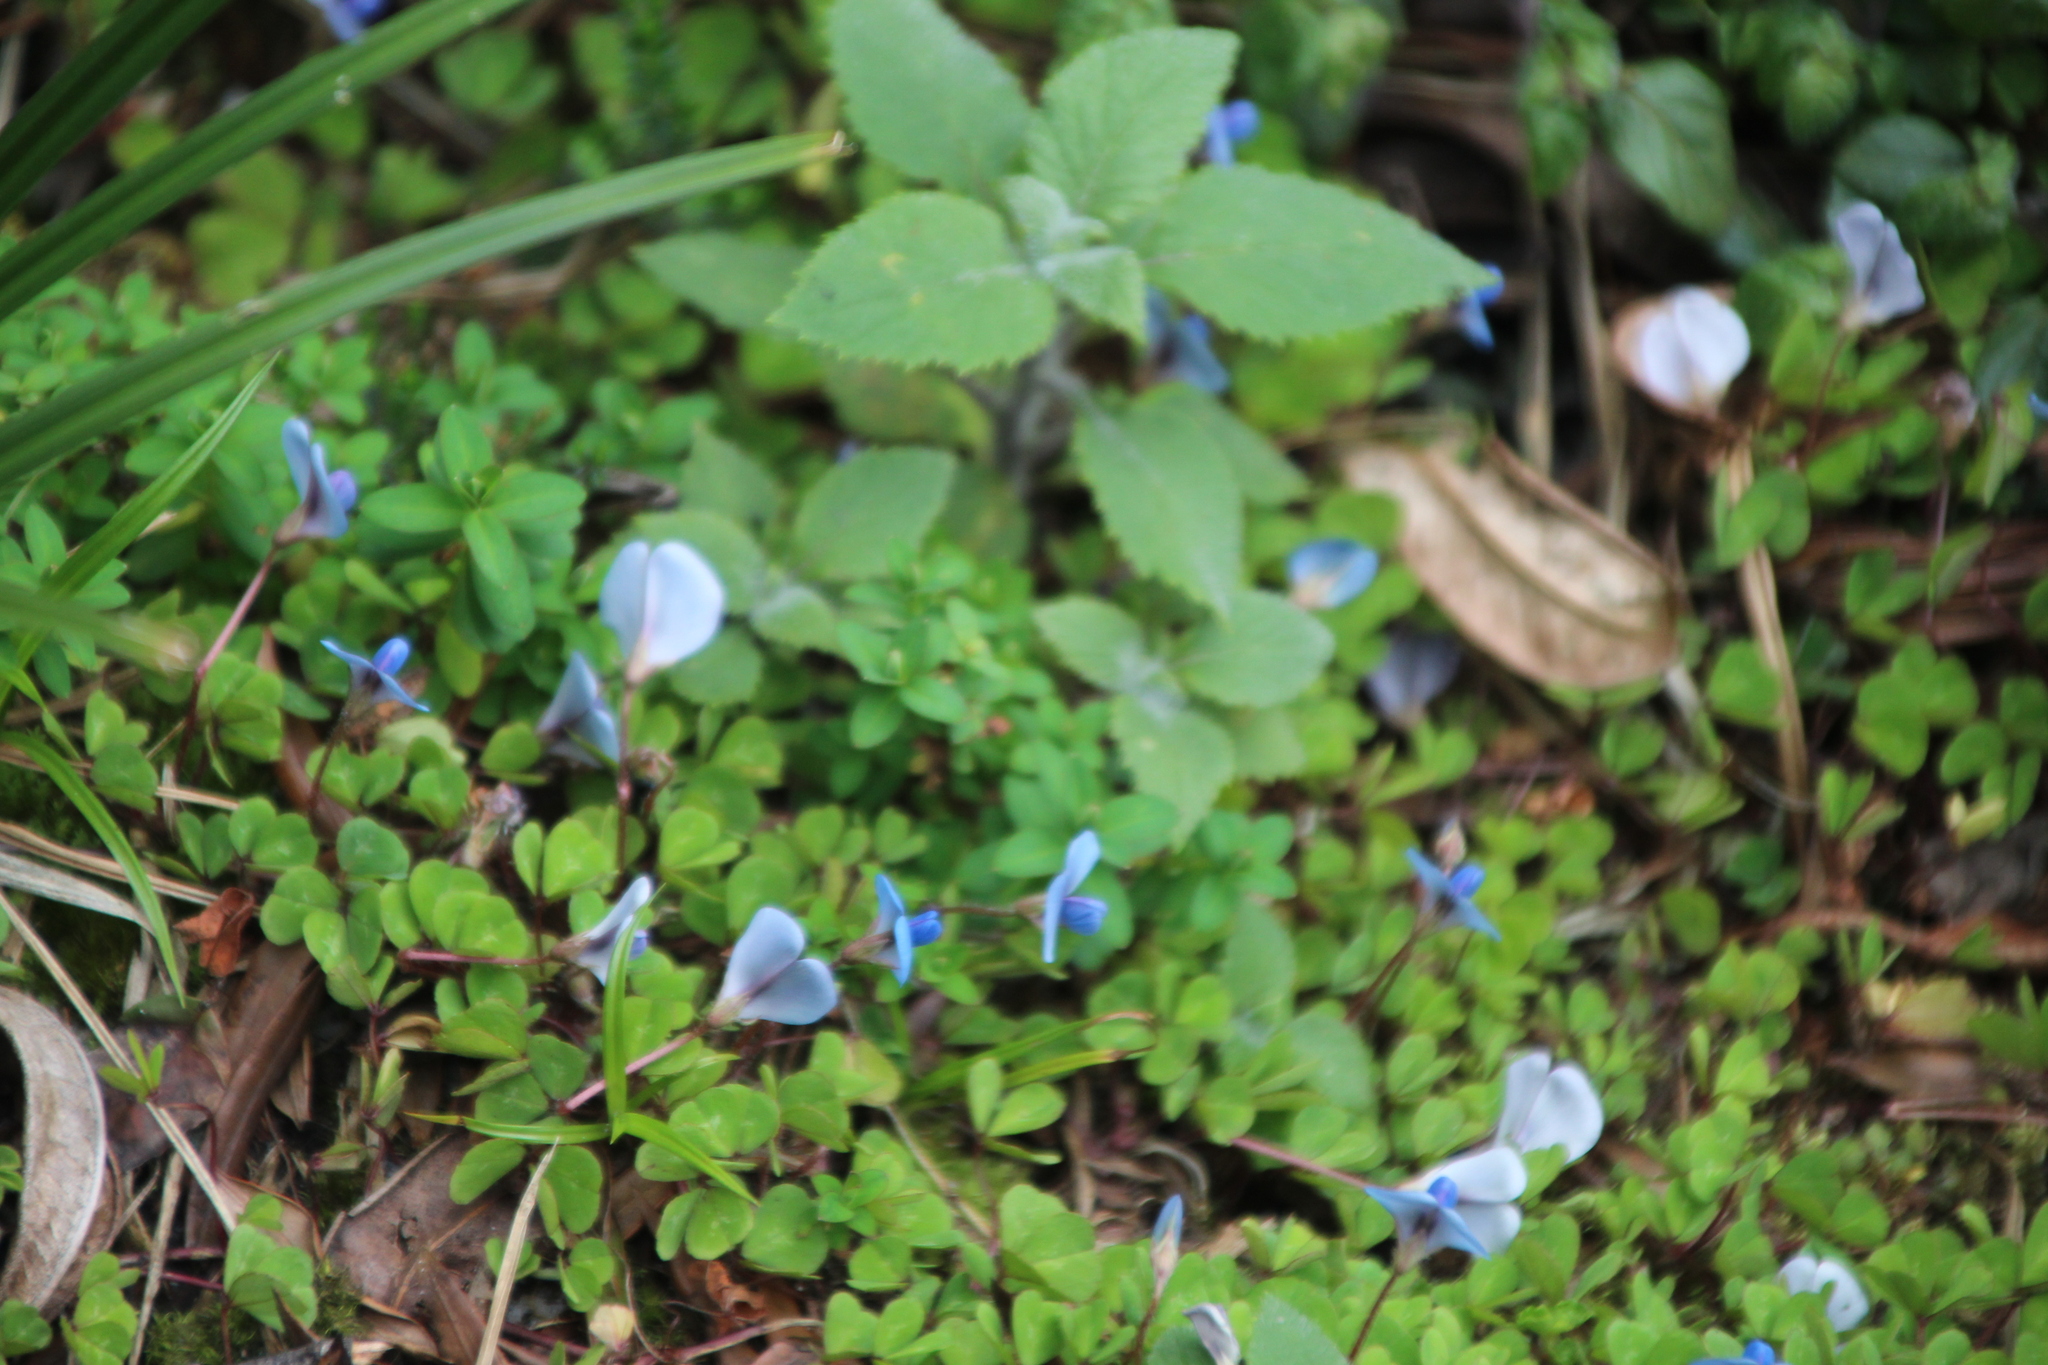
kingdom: Plantae
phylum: Tracheophyta
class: Magnoliopsida
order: Fabales
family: Fabaceae
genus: Parochetus
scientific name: Parochetus africanus
